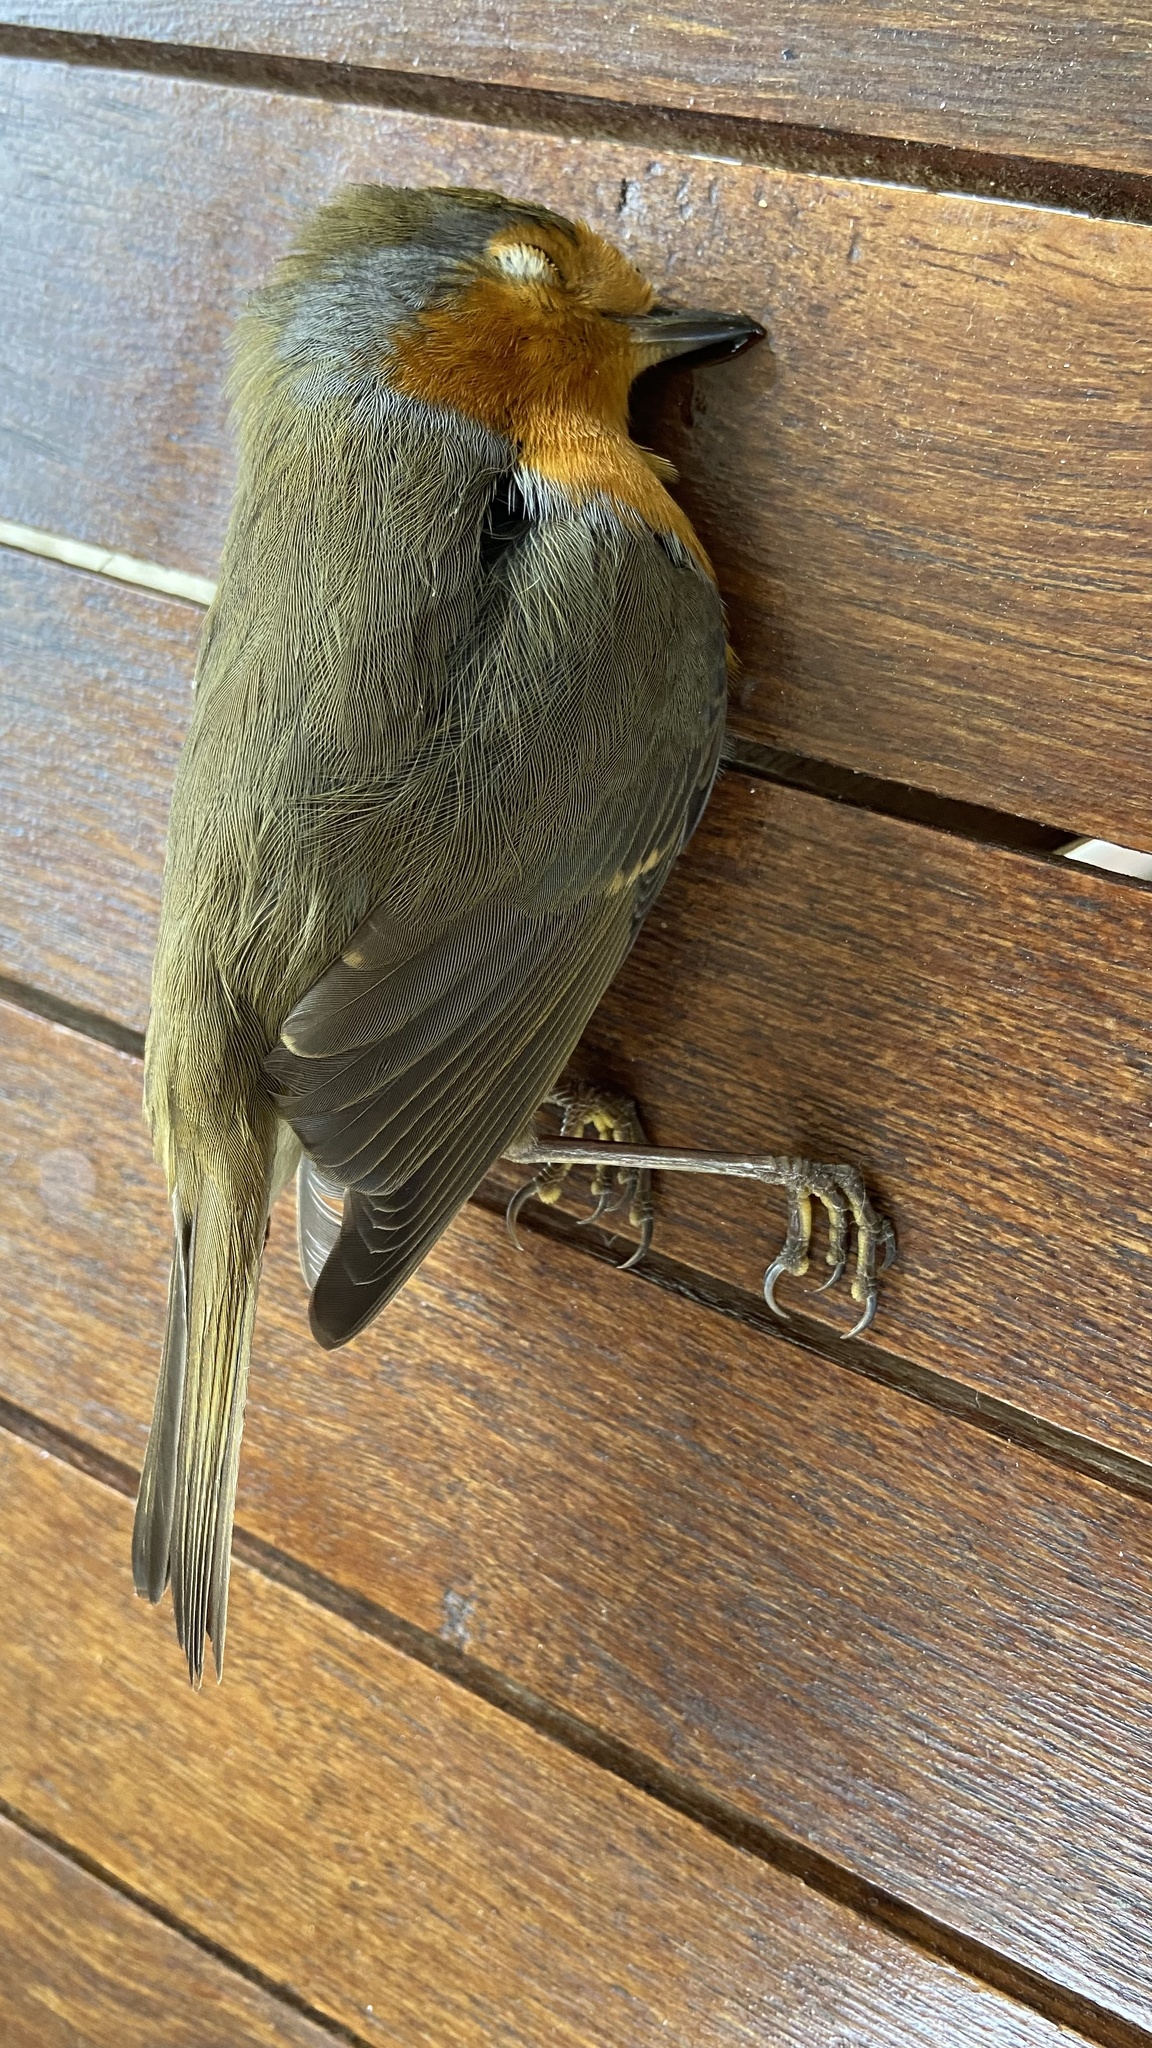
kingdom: Animalia
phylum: Chordata
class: Aves
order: Passeriformes
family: Muscicapidae
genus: Erithacus
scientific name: Erithacus rubecula
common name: European robin
